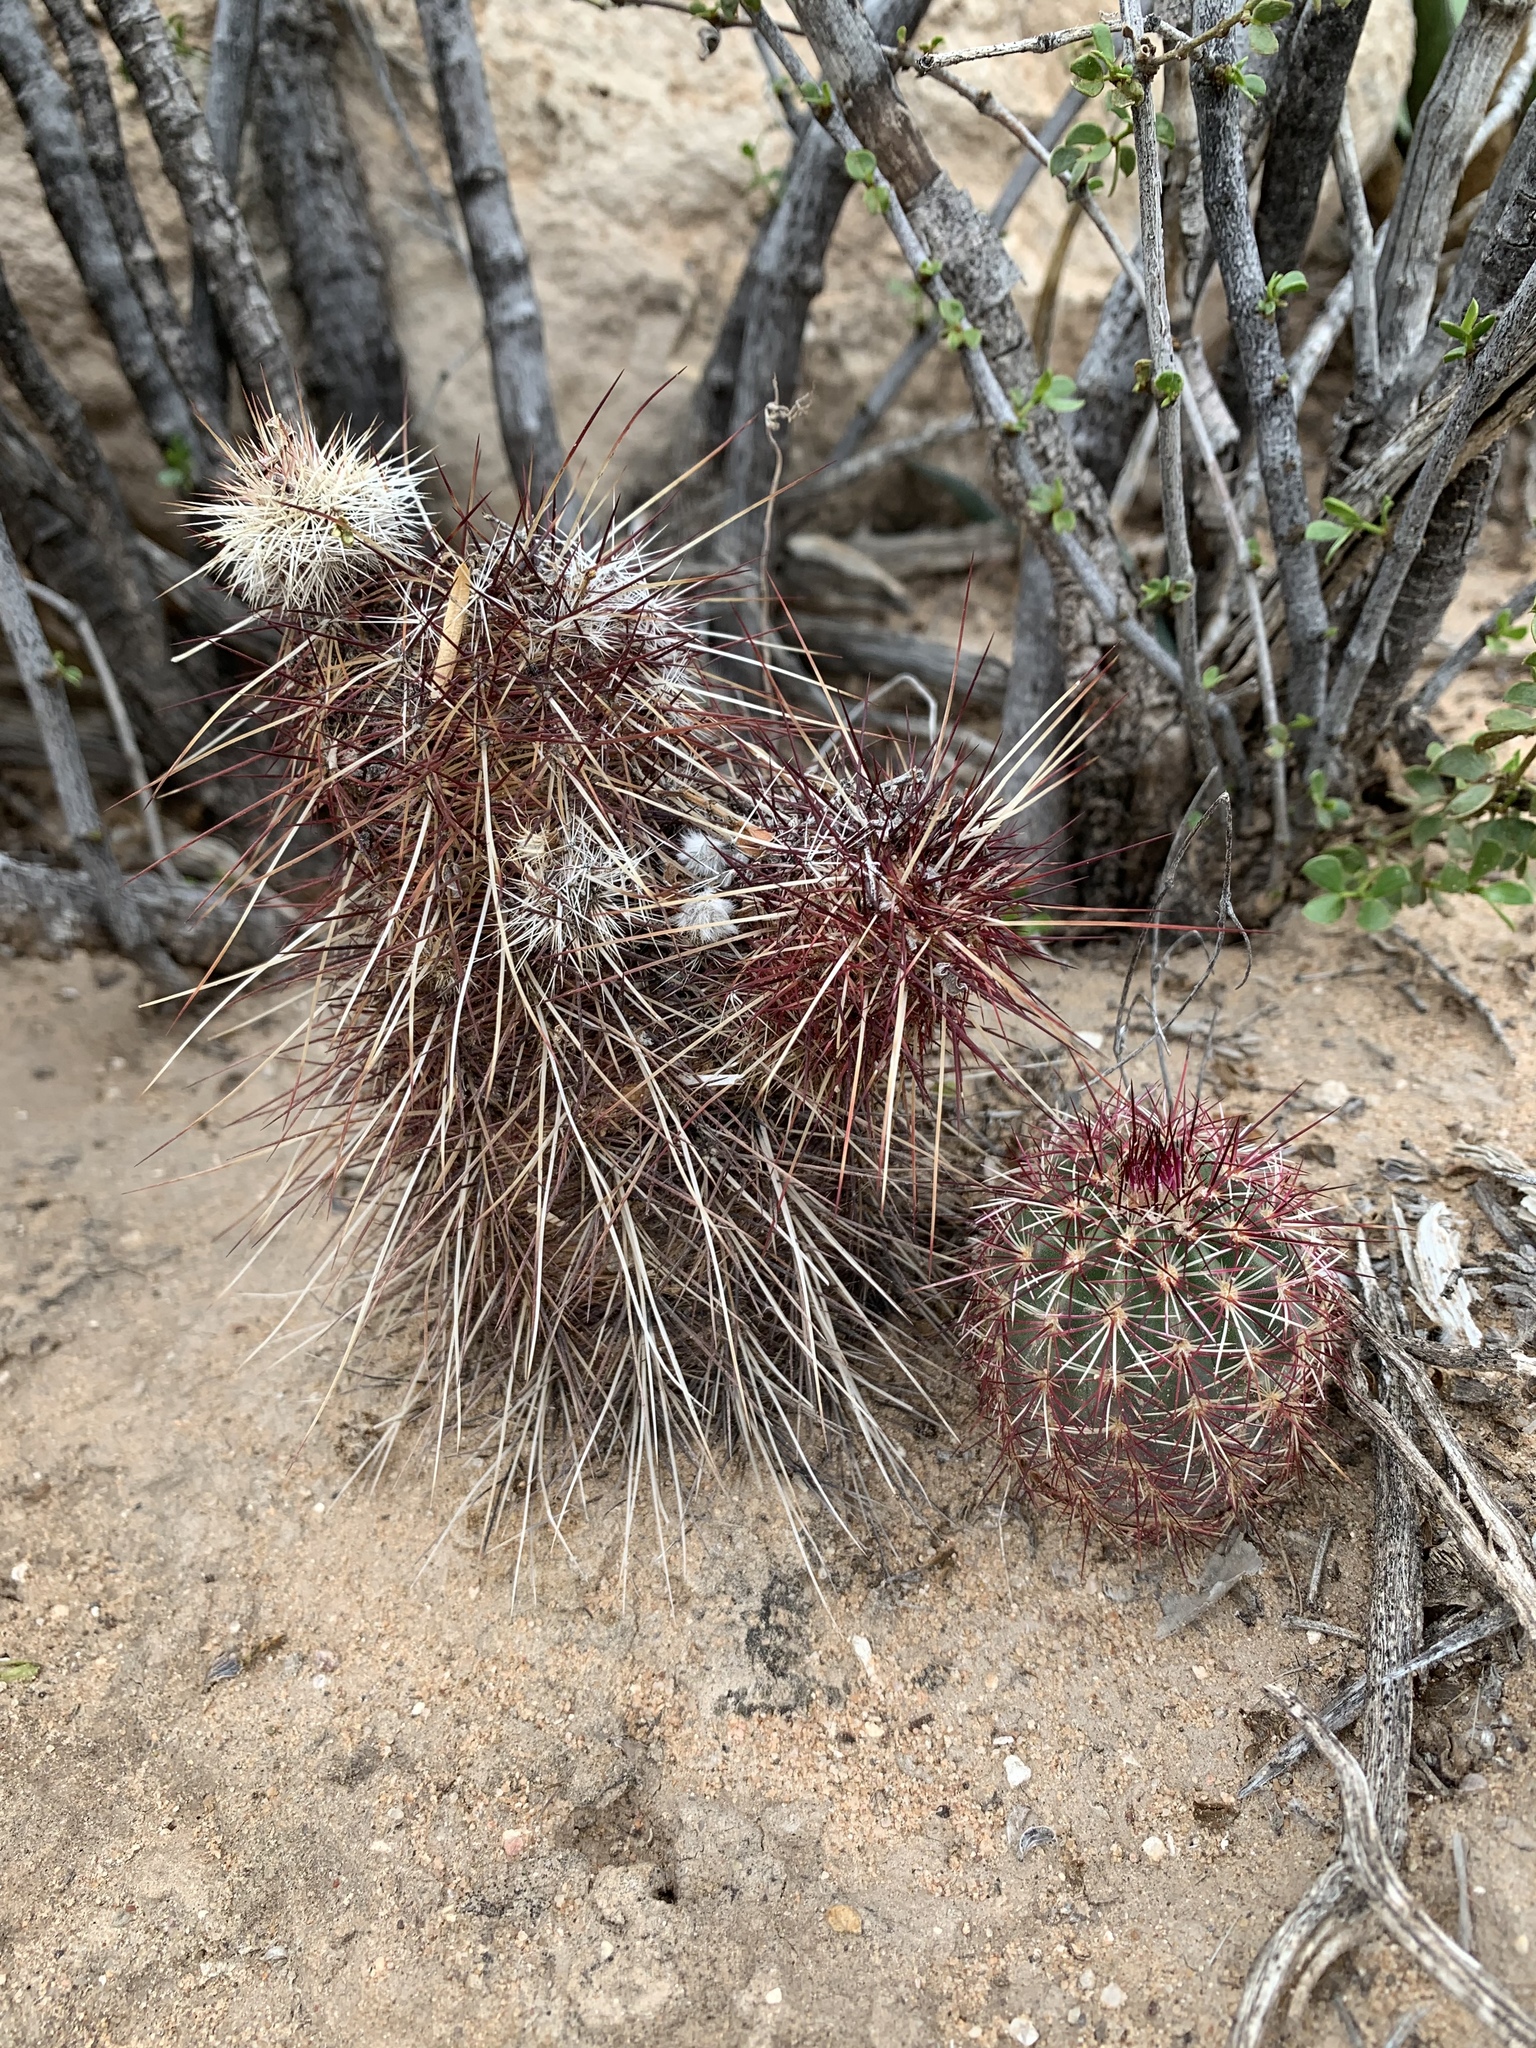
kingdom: Plantae
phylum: Tracheophyta
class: Magnoliopsida
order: Caryophyllales
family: Cactaceae
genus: Echinocereus
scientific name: Echinocereus viridiflorus
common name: Nylon hedgehog cactus
